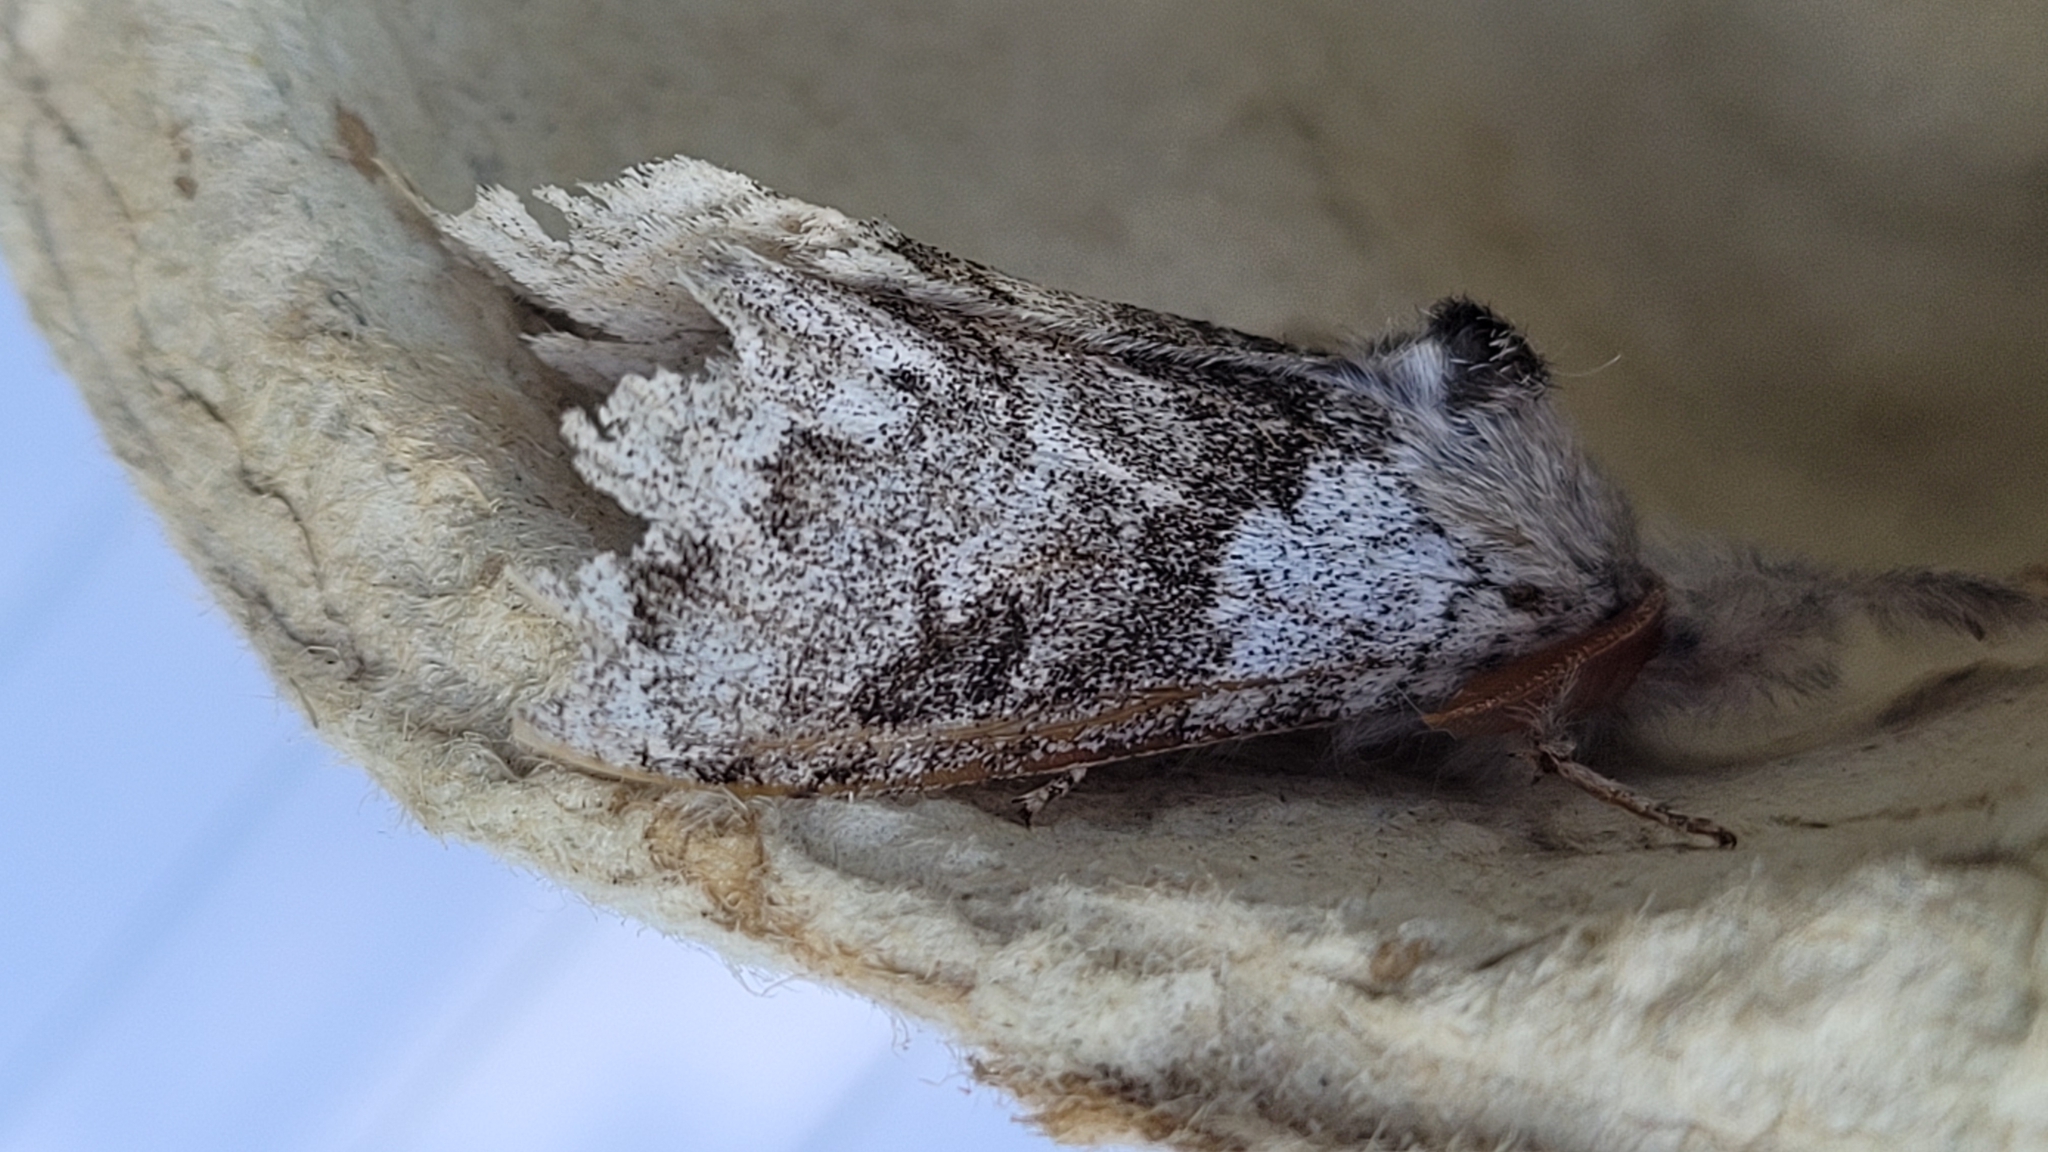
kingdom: Animalia
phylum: Arthropoda
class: Insecta
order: Lepidoptera
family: Erebidae
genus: Calliteara
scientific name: Calliteara pudibunda
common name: Pale tussock
